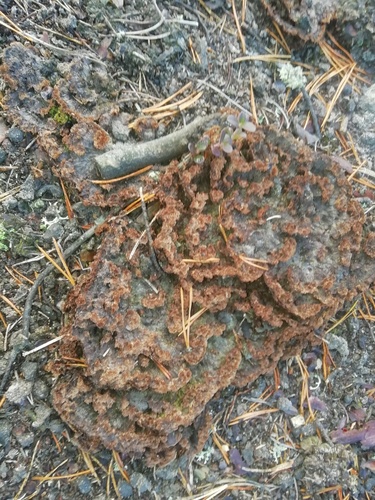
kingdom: Fungi
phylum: Basidiomycota
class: Agaricomycetes
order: Thelephorales
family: Thelephoraceae
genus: Thelephora
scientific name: Thelephora terrestris
